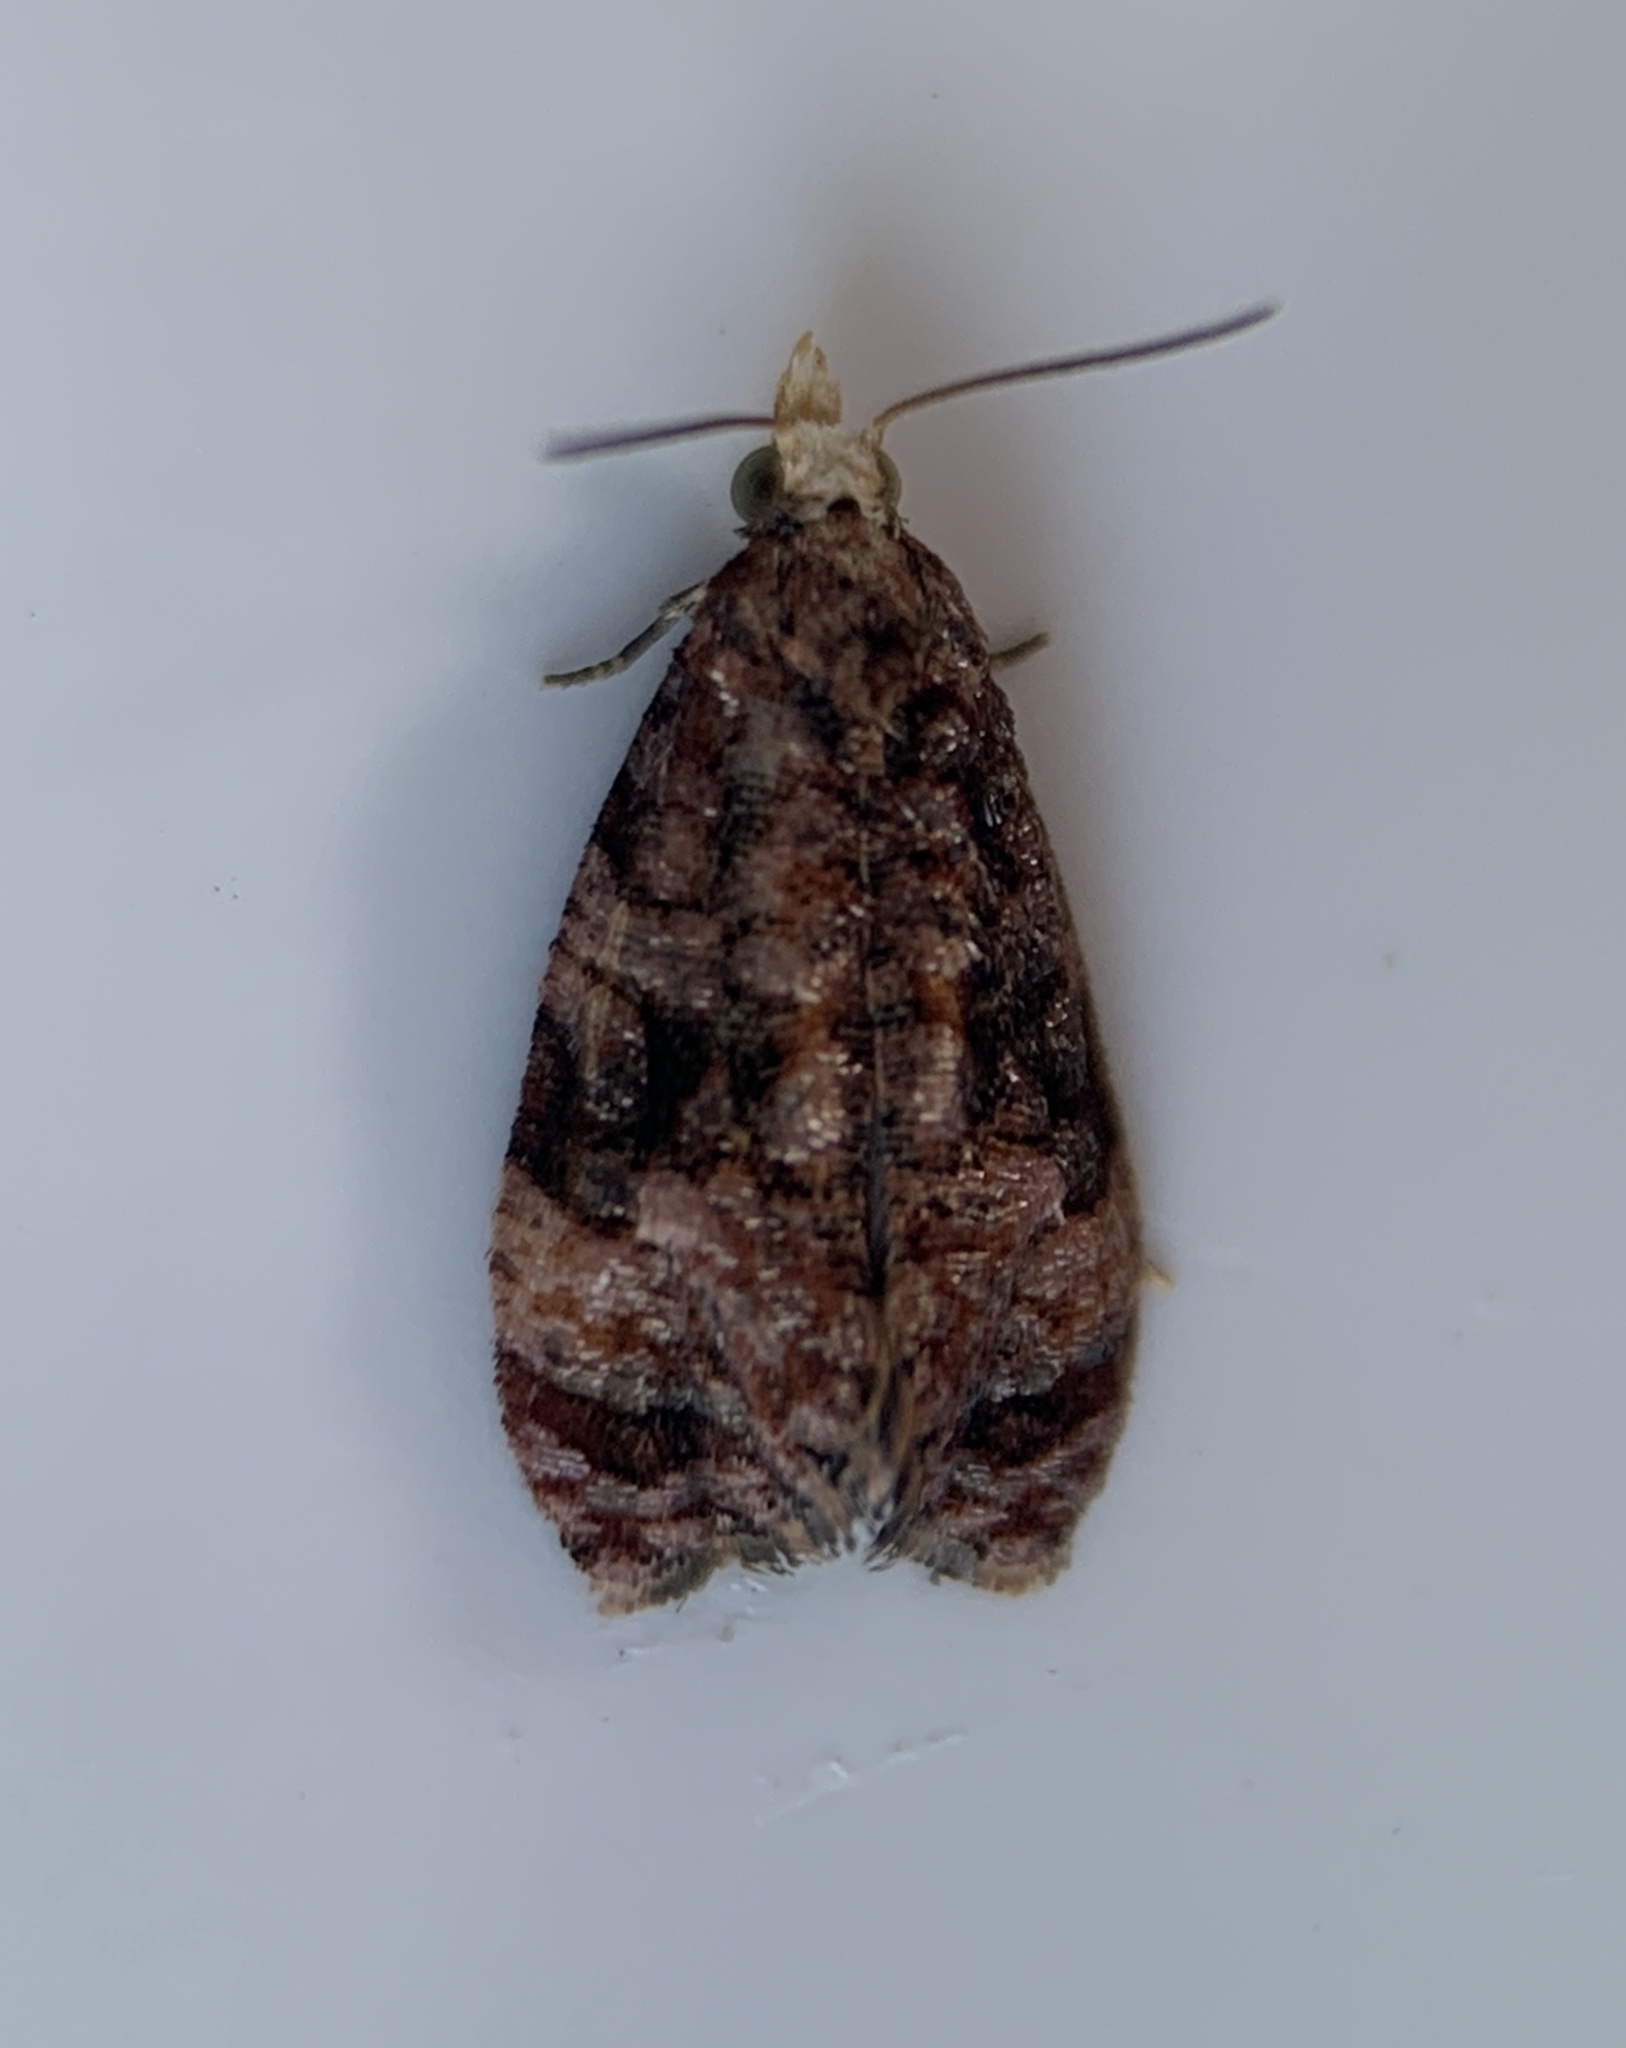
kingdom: Animalia
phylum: Arthropoda
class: Insecta
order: Lepidoptera
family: Tortricidae
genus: Phalonia
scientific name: Phalonia cephalanthana
